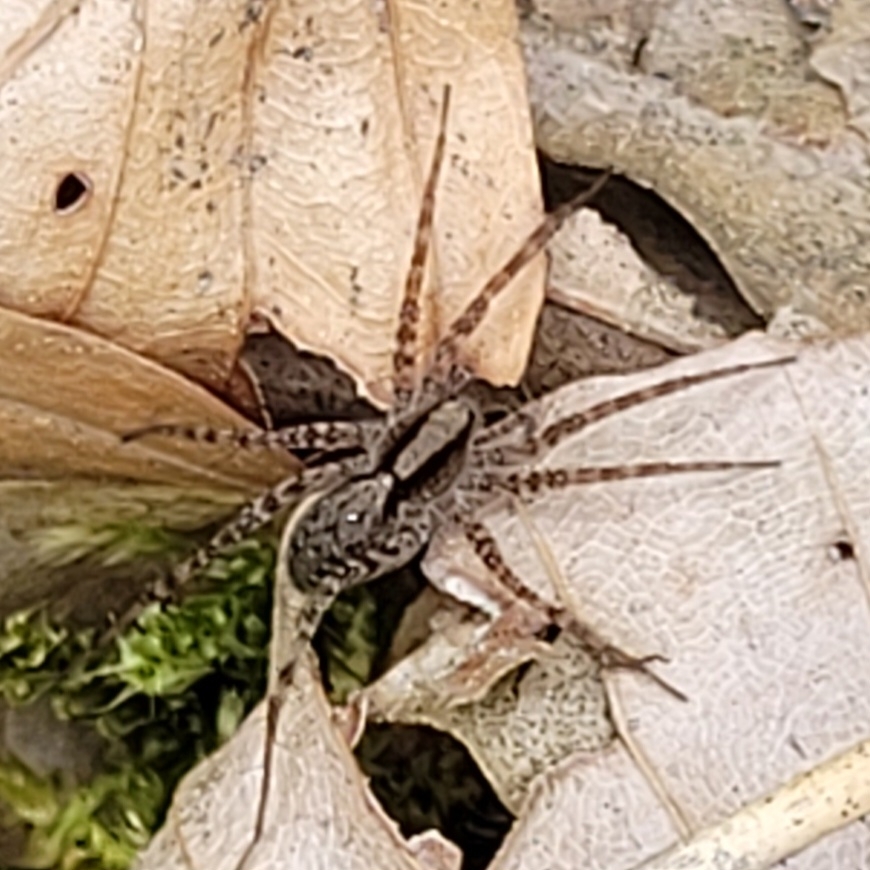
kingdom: Animalia
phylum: Arthropoda
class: Arachnida
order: Araneae
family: Lycosidae
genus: Pardosa
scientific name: Pardosa
